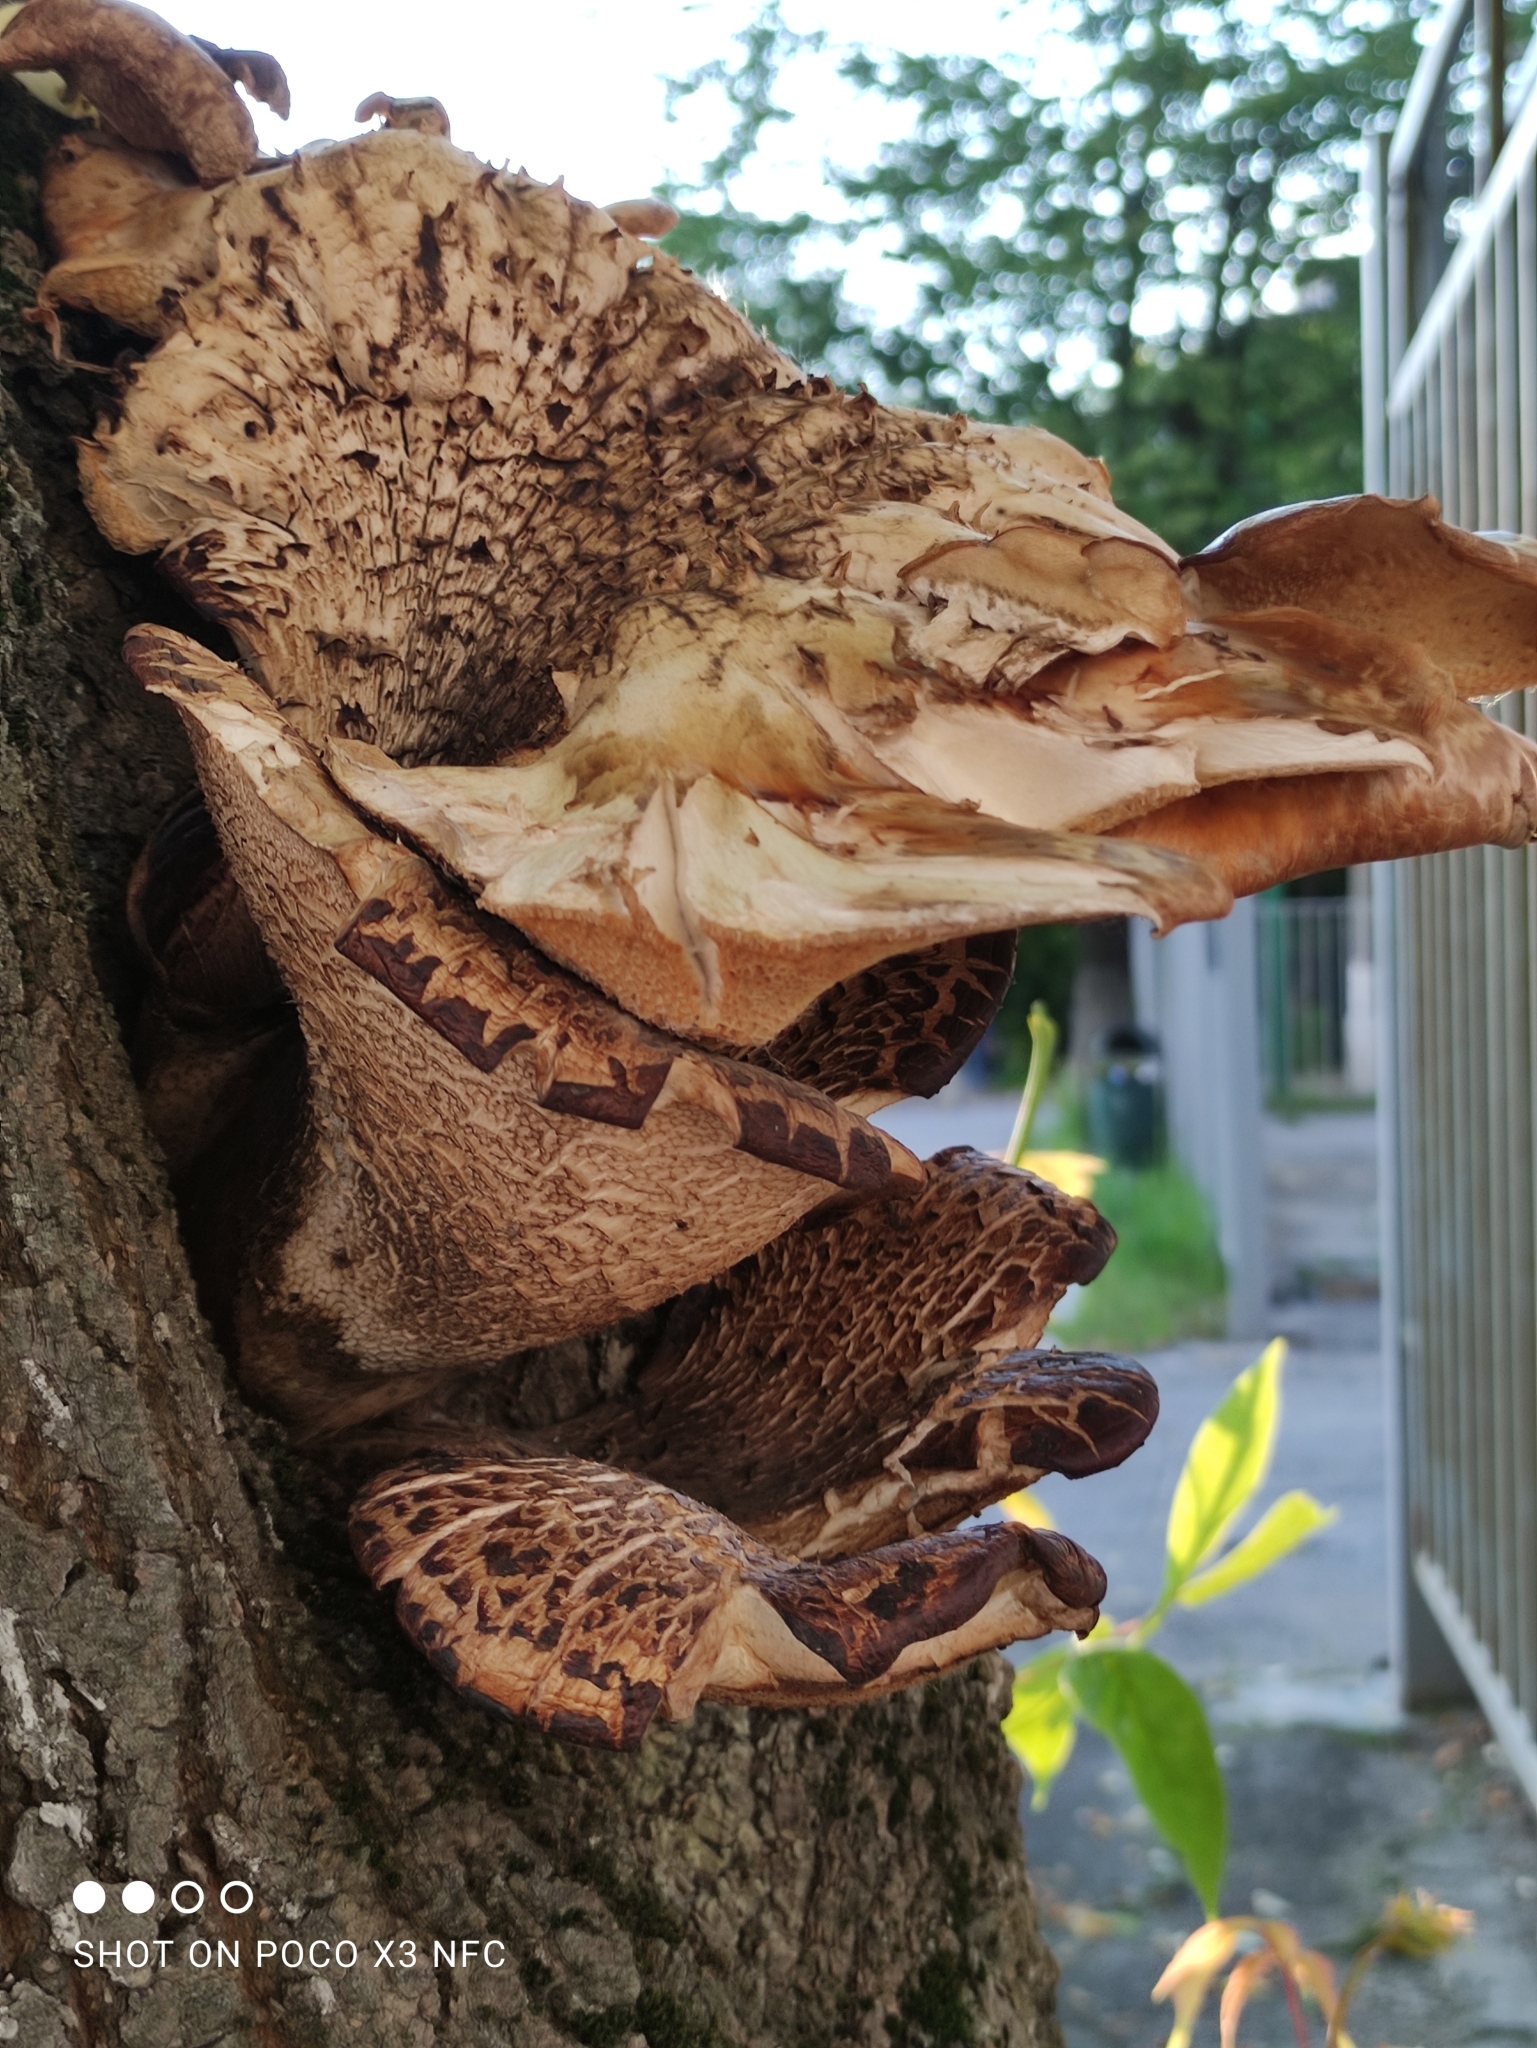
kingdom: Fungi
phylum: Basidiomycota
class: Agaricomycetes
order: Polyporales
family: Polyporaceae
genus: Cerioporus
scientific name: Cerioporus squamosus
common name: Dryad's saddle
